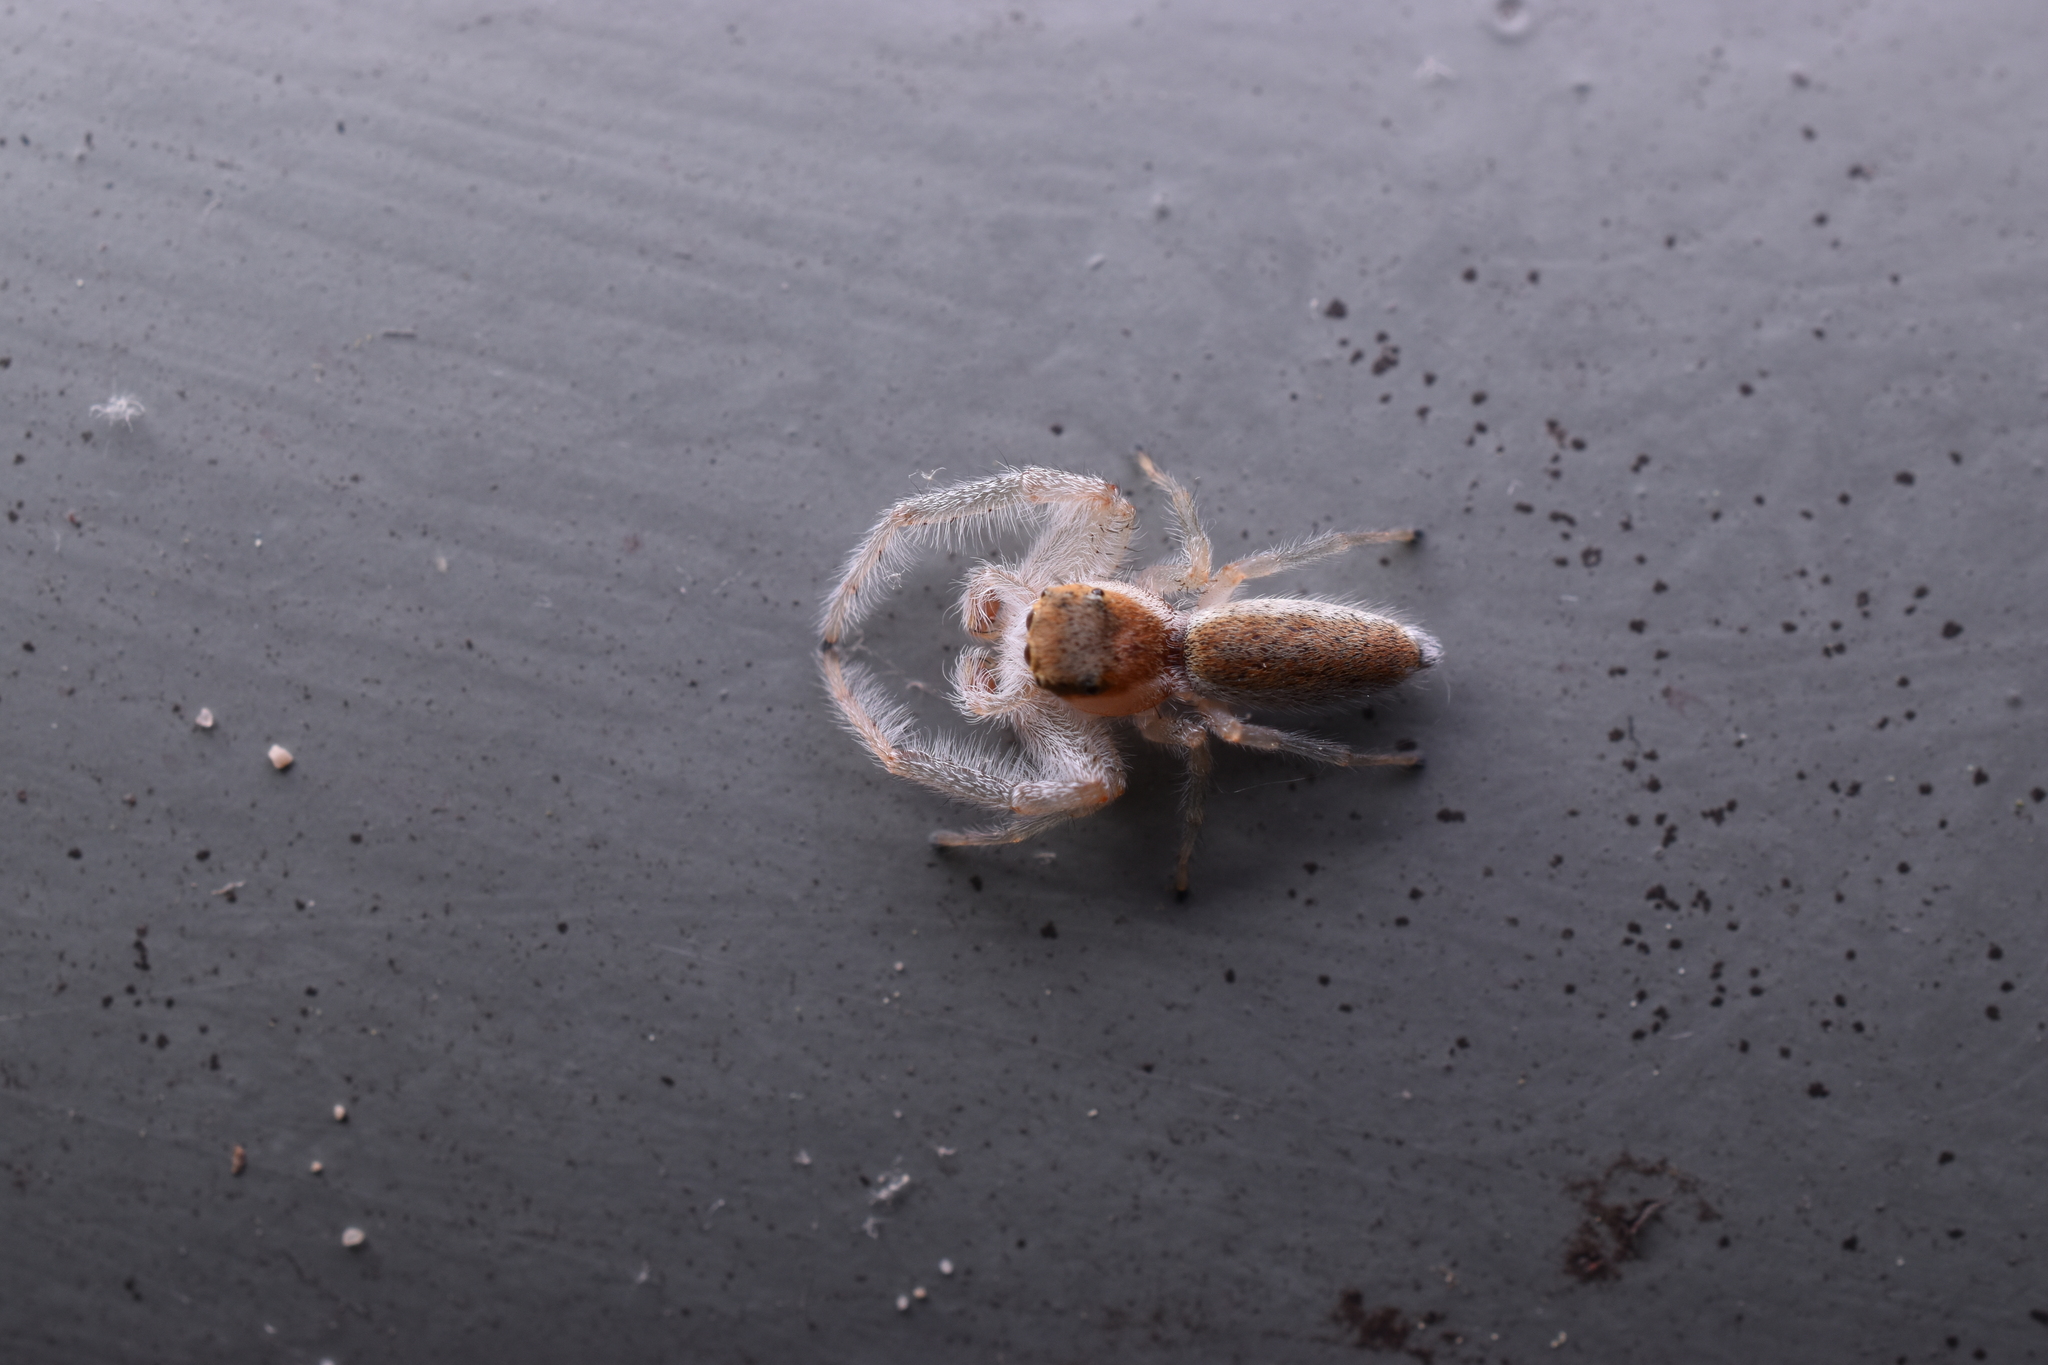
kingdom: Animalia
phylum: Arthropoda
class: Arachnida
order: Araneae
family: Salticidae
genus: Hentzia
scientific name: Hentzia mitrata
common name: White-jawed jumping spider
